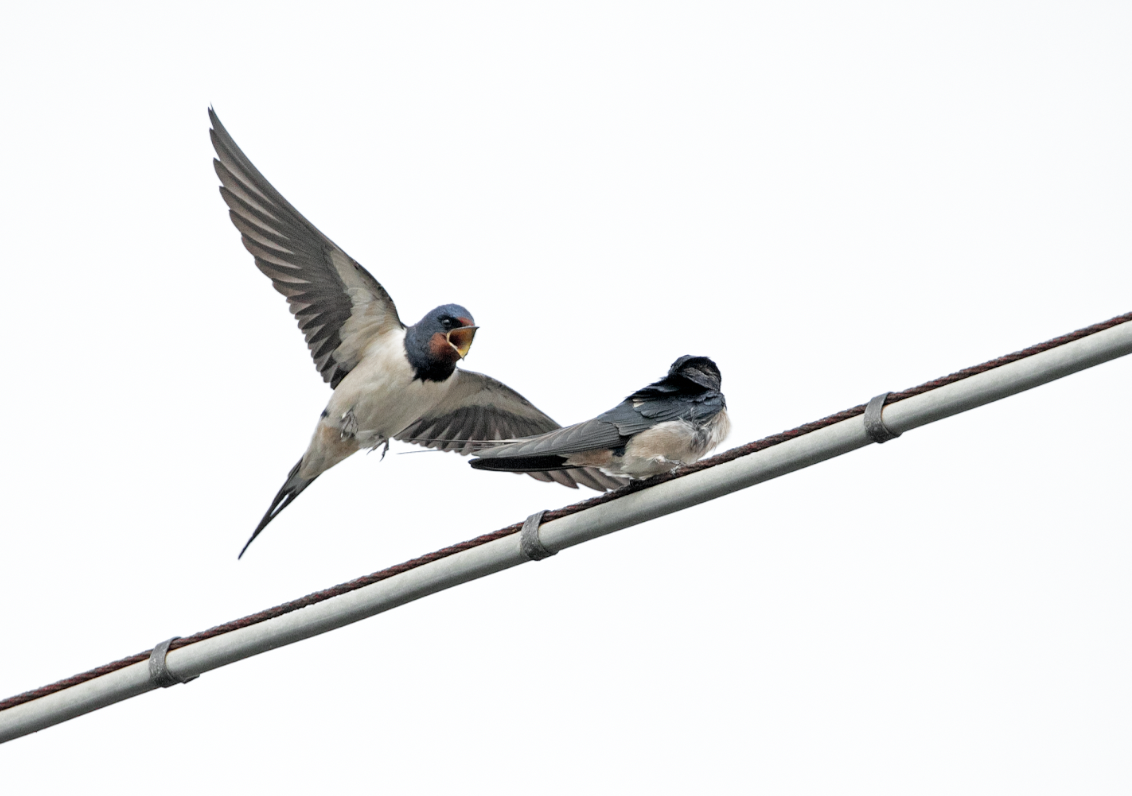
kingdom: Animalia
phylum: Chordata
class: Aves
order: Passeriformes
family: Hirundinidae
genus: Hirundo
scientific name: Hirundo rustica
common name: Barn swallow
